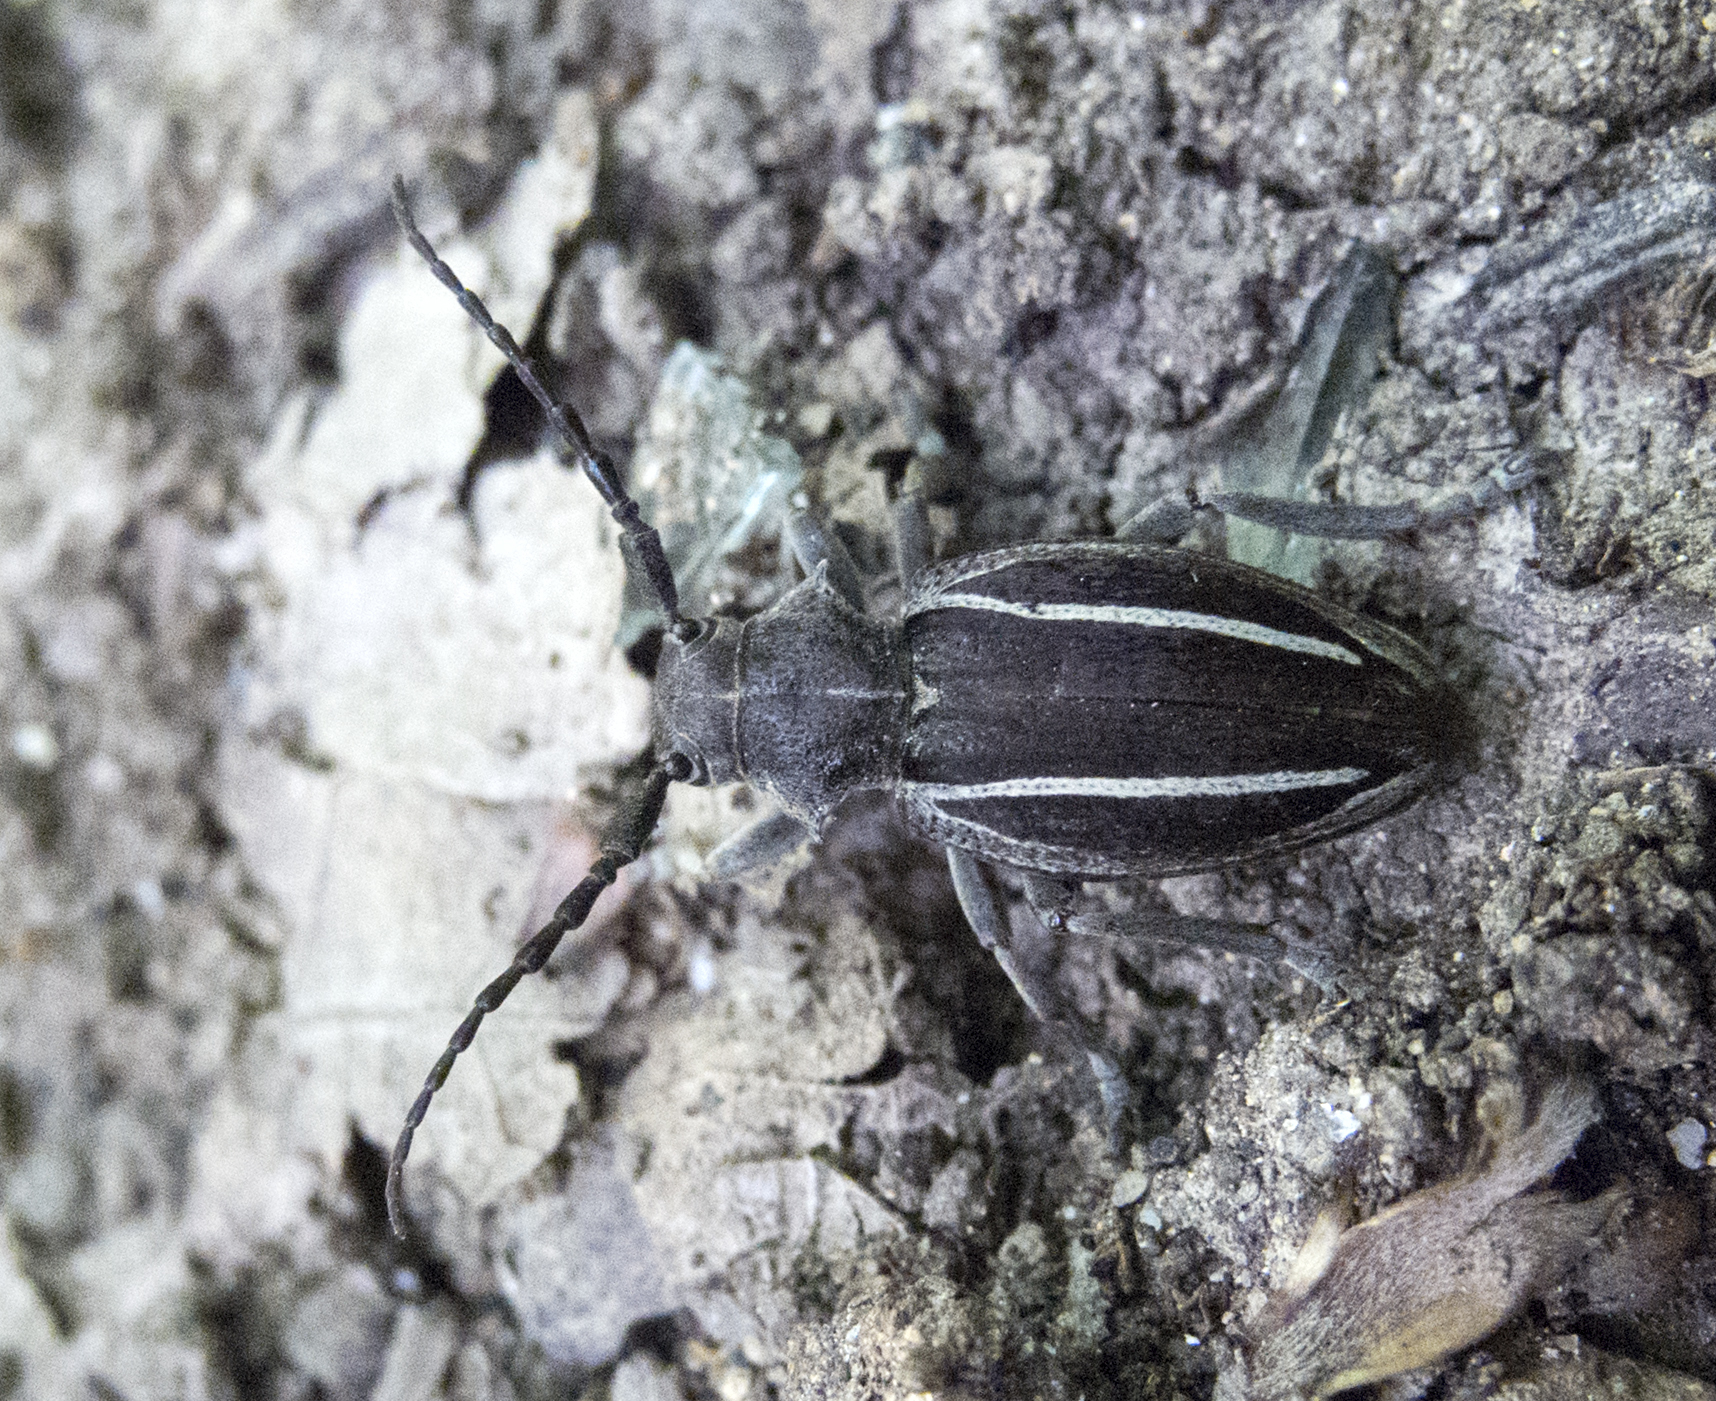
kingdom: Animalia
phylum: Arthropoda
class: Insecta
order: Coleoptera
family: Cerambycidae
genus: Neodorcadion
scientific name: Neodorcadion bilineatum
